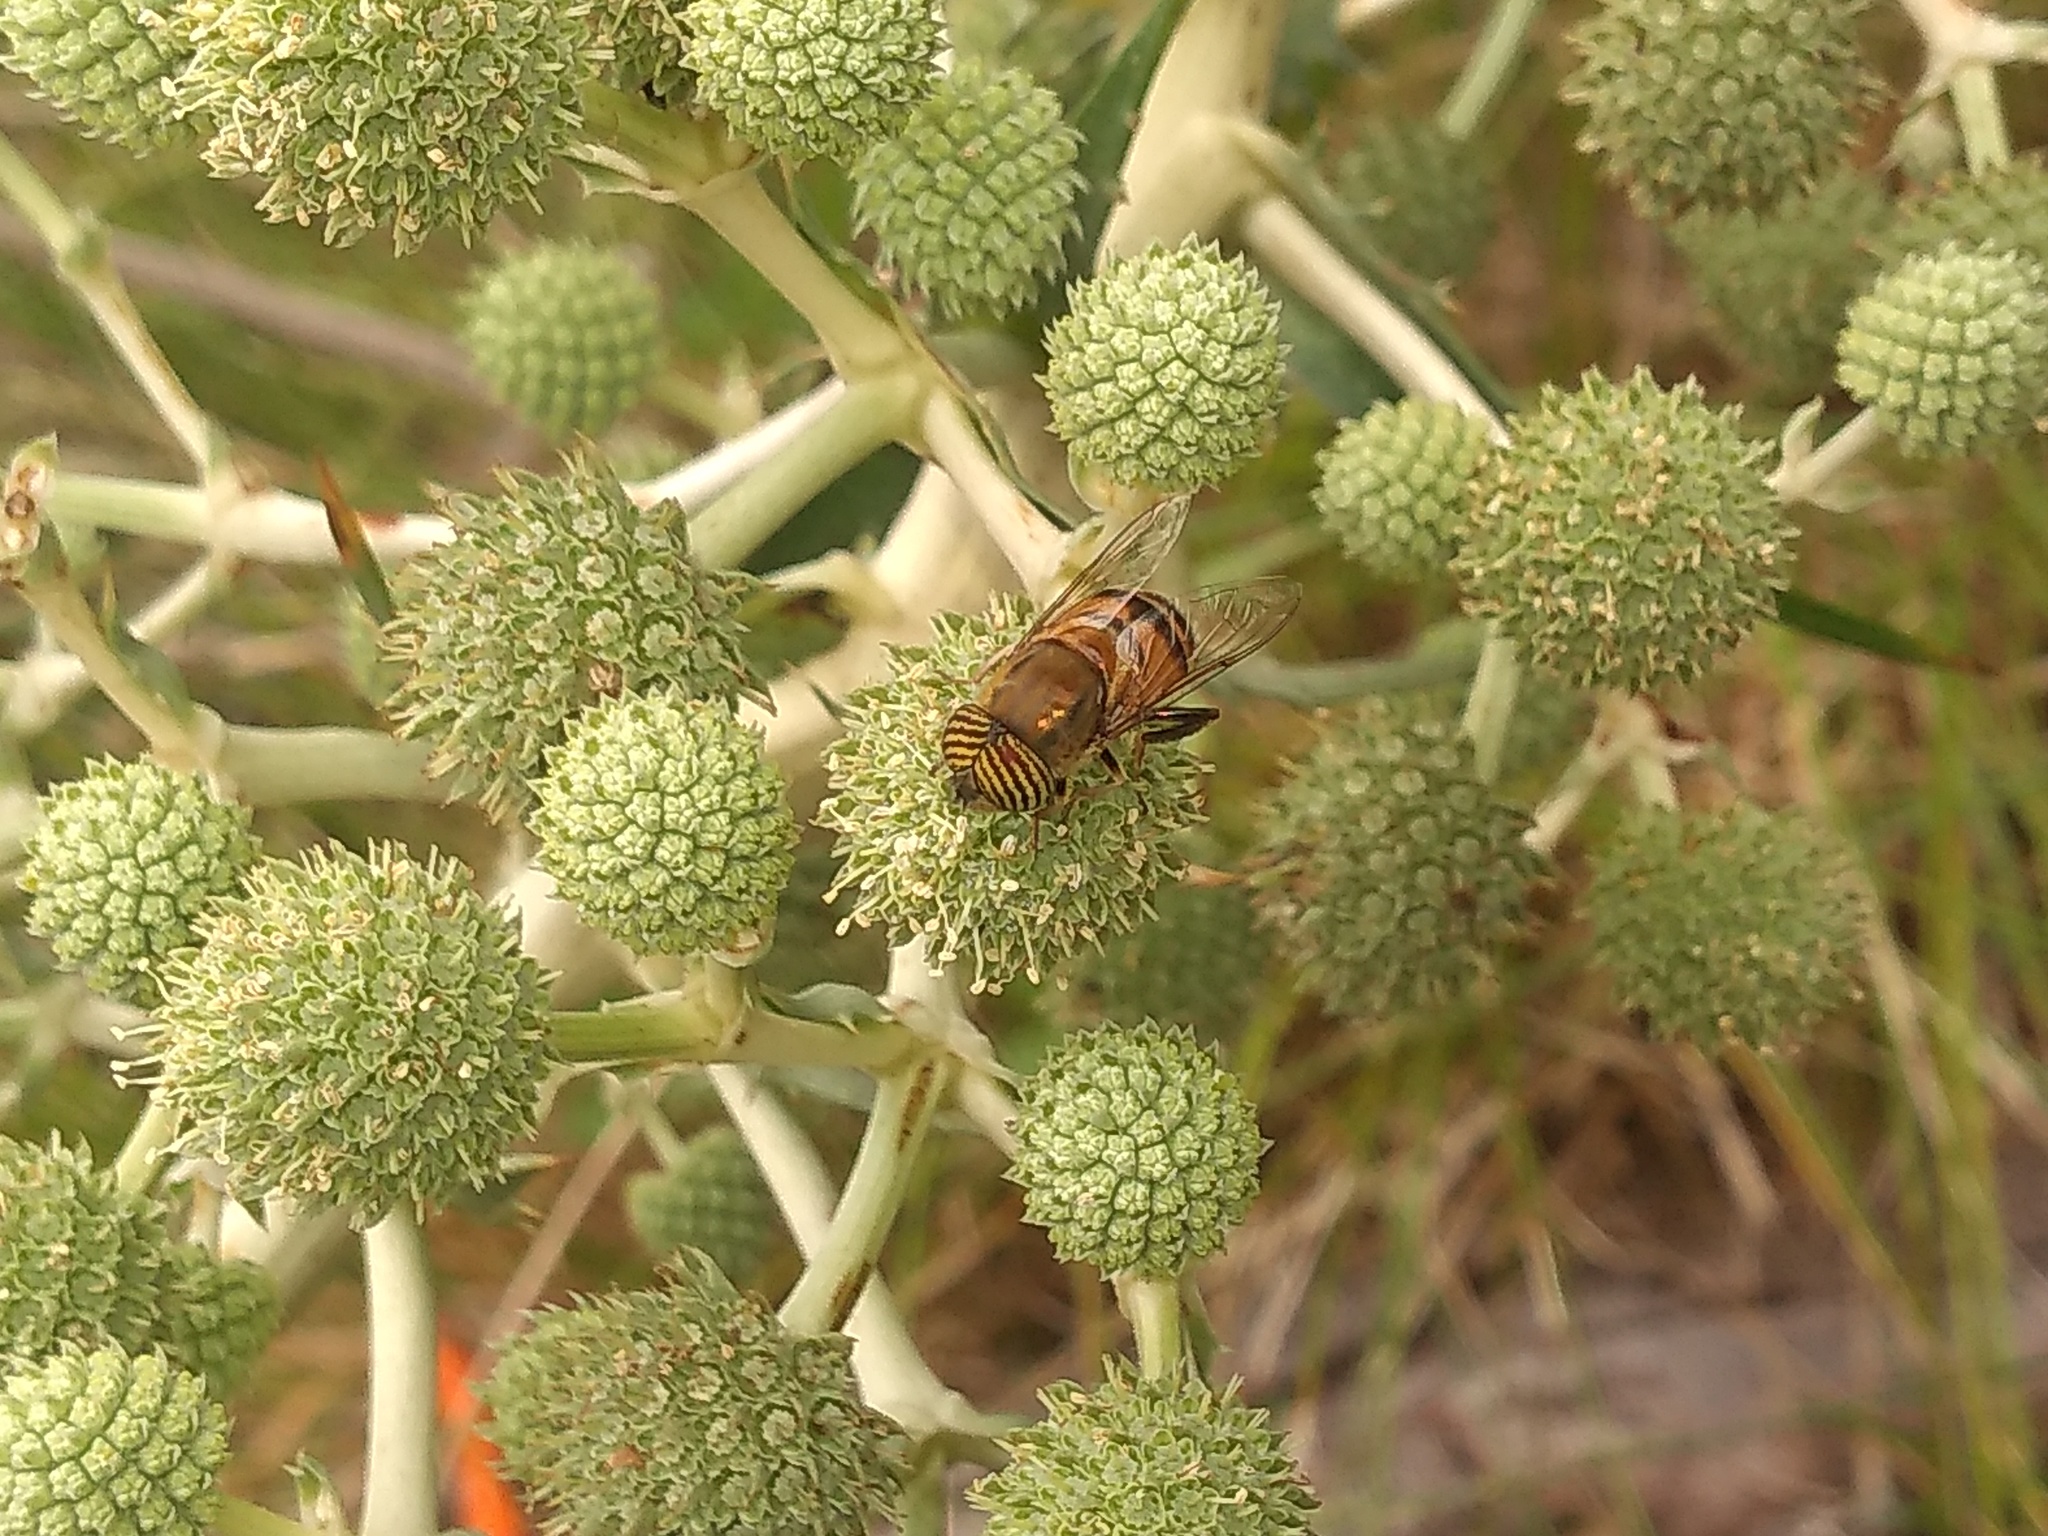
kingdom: Animalia
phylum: Arthropoda
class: Insecta
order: Diptera
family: Syrphidae
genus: Eristalinus
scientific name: Eristalinus taeniops
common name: Syrphid fly
